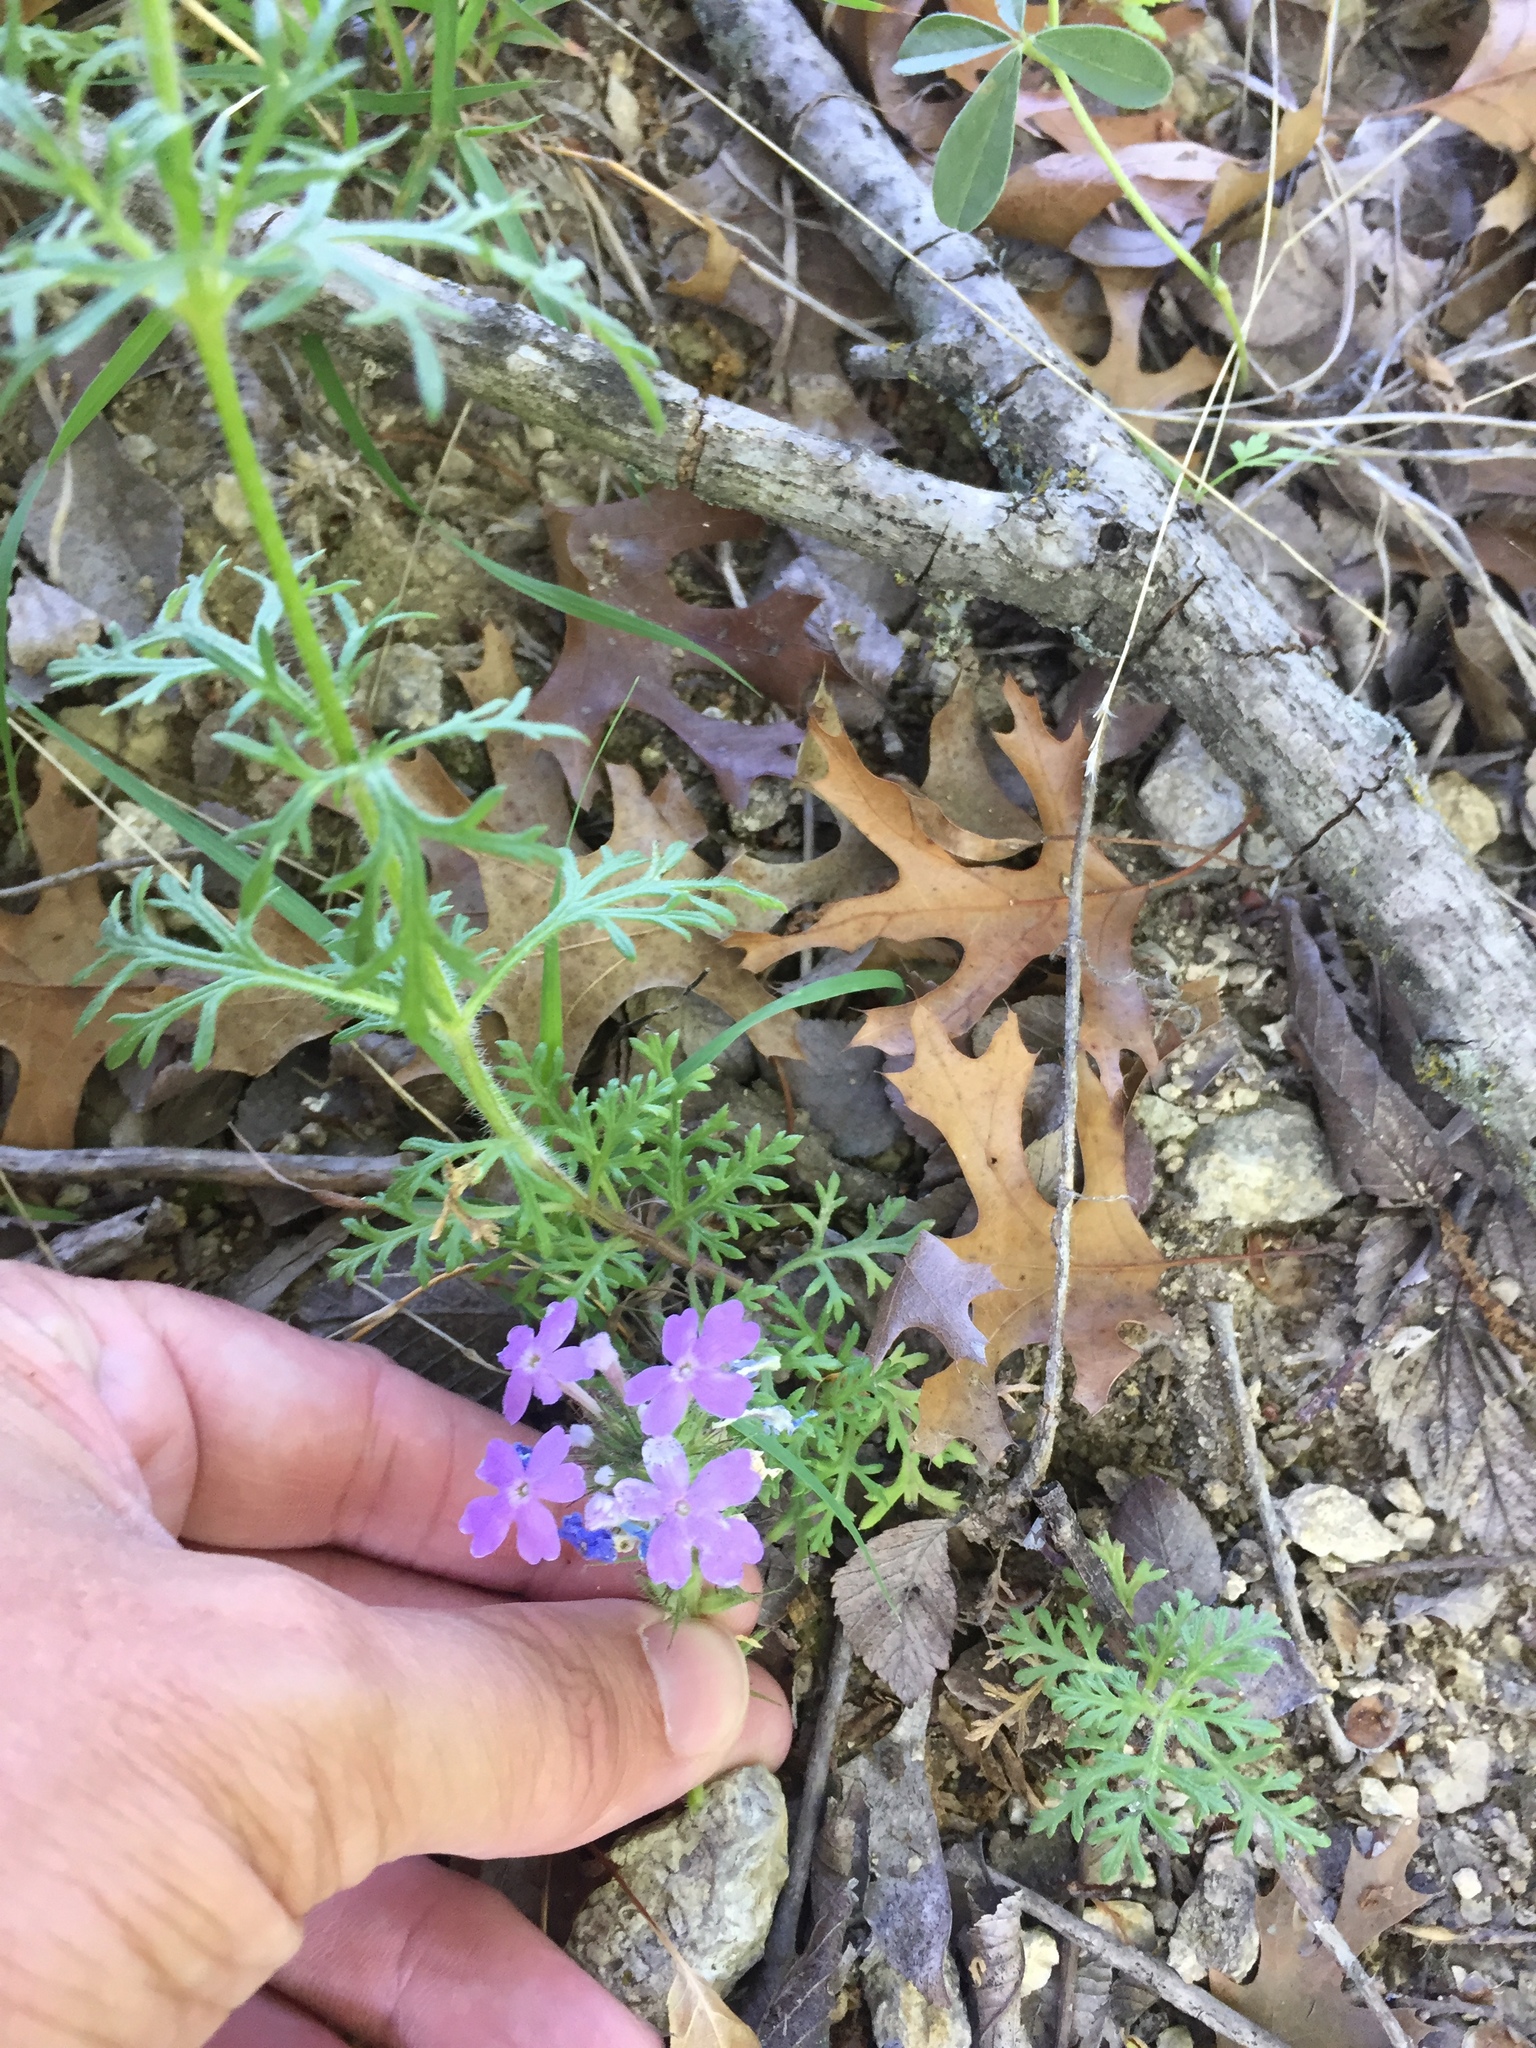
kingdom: Plantae
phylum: Tracheophyta
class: Magnoliopsida
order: Lamiales
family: Verbenaceae
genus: Verbena
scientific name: Verbena bipinnatifida
